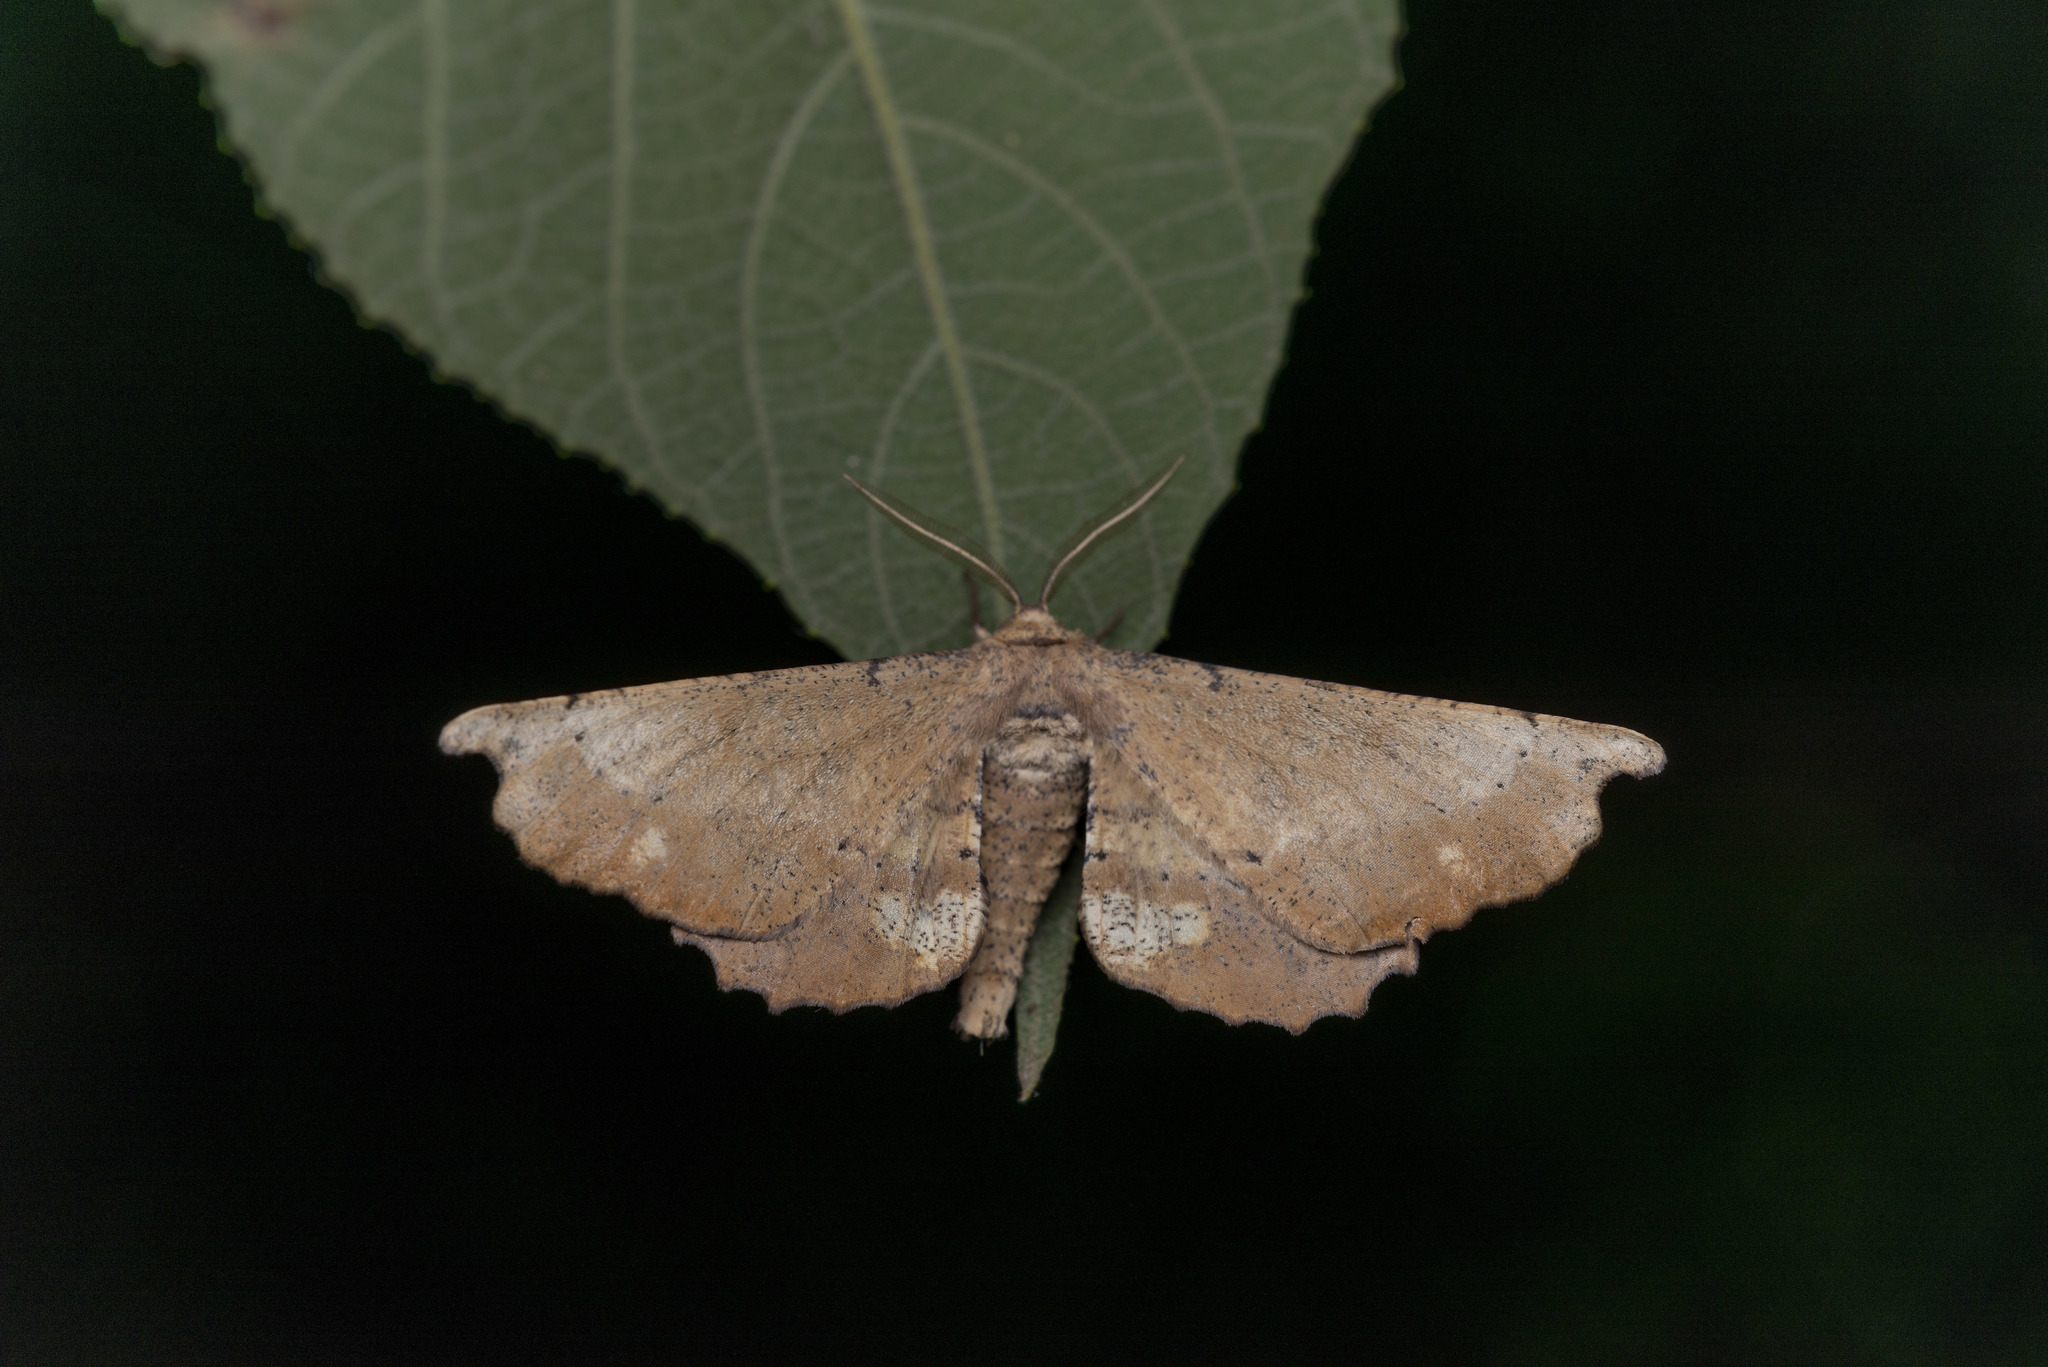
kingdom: Animalia
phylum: Arthropoda
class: Insecta
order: Lepidoptera
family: Geometridae
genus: Acrodontis
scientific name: Acrodontis hunana
